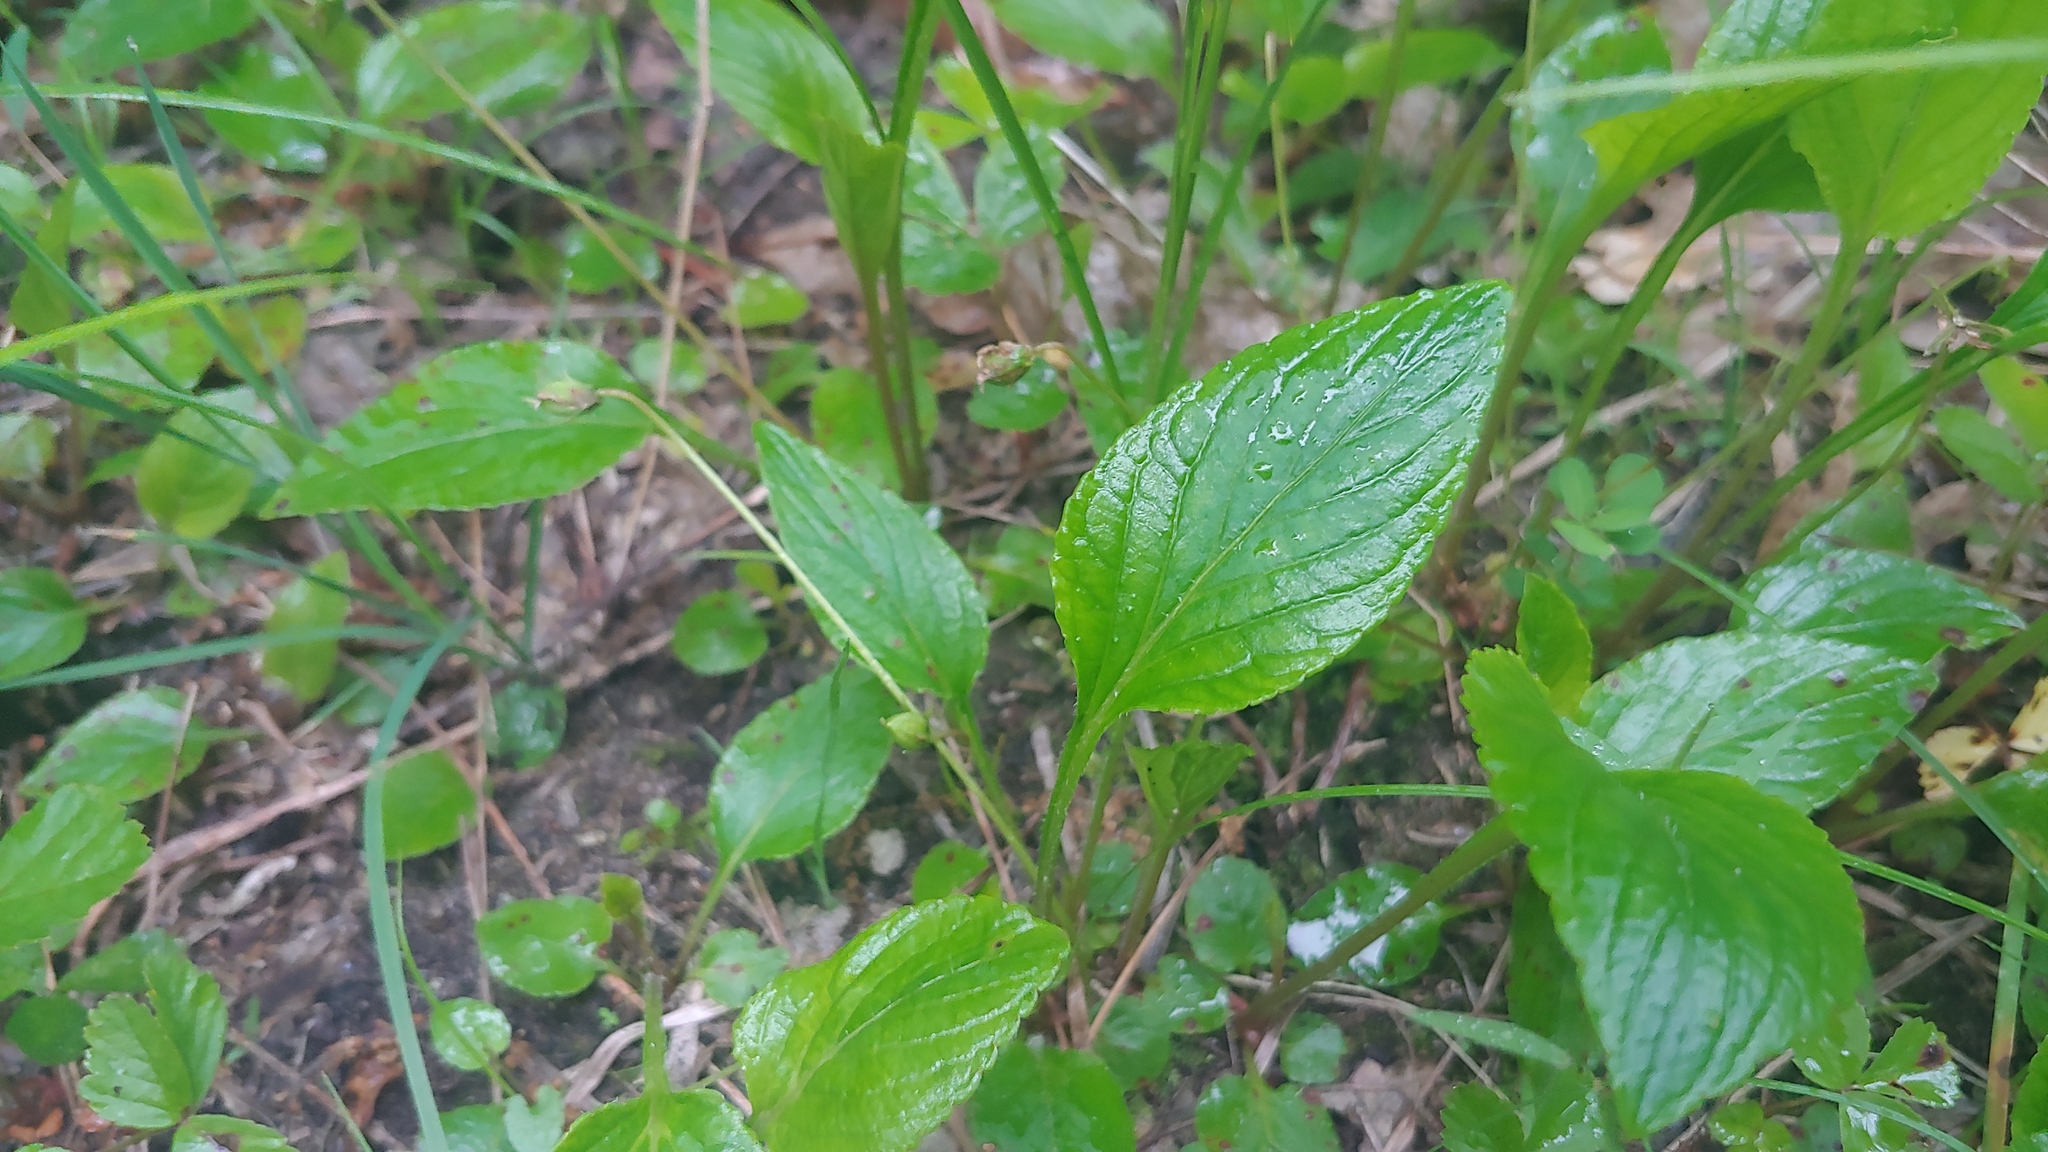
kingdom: Plantae
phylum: Tracheophyta
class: Magnoliopsida
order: Malpighiales
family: Violaceae
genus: Viola
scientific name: Viola primulifolia
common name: Primrose-leaf violet
